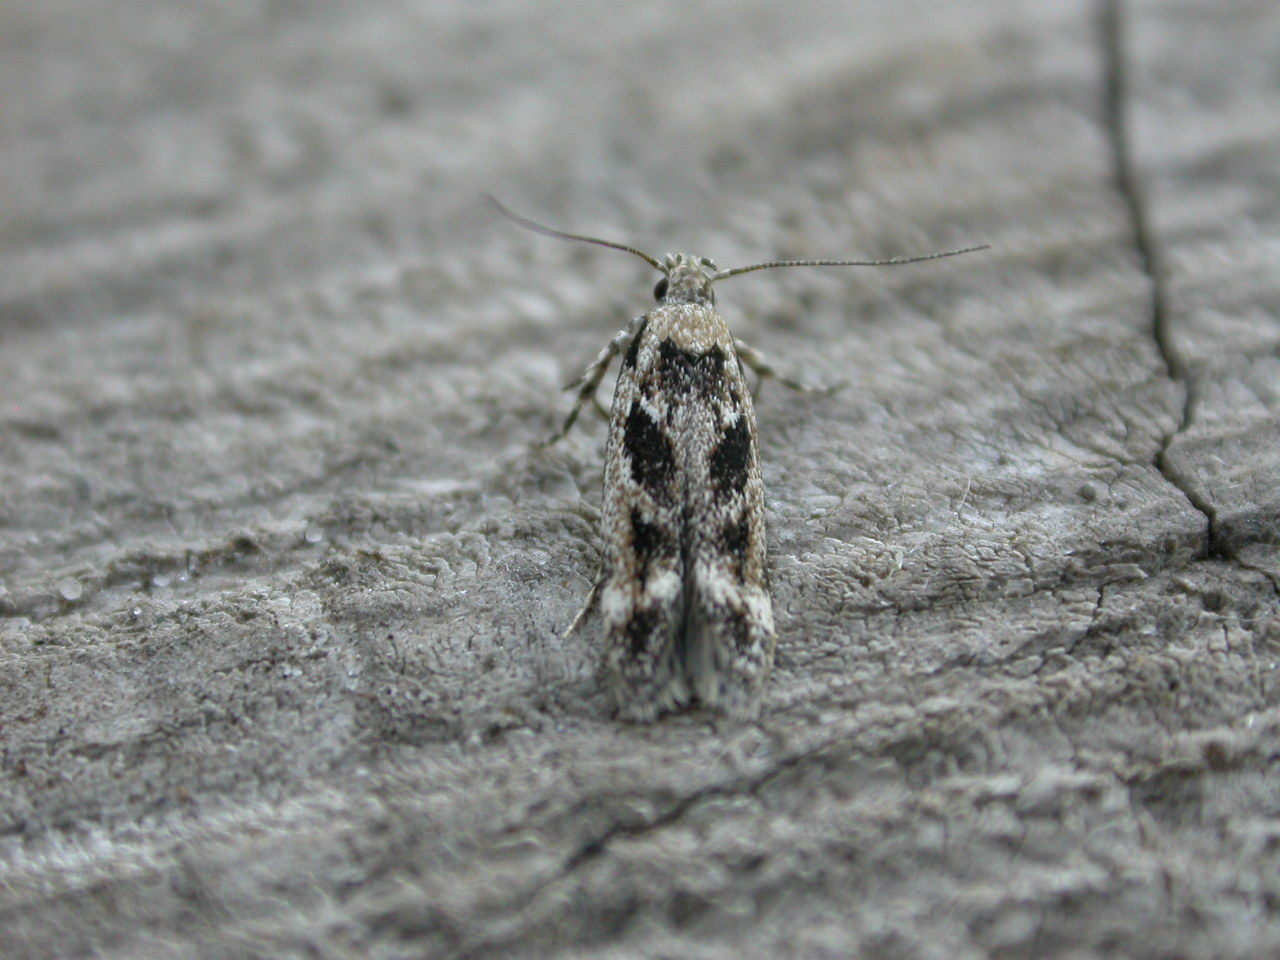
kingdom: Animalia
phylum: Arthropoda
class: Insecta
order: Lepidoptera
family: Gelechiidae
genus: Caryocolum
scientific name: Caryocolum fischerella
